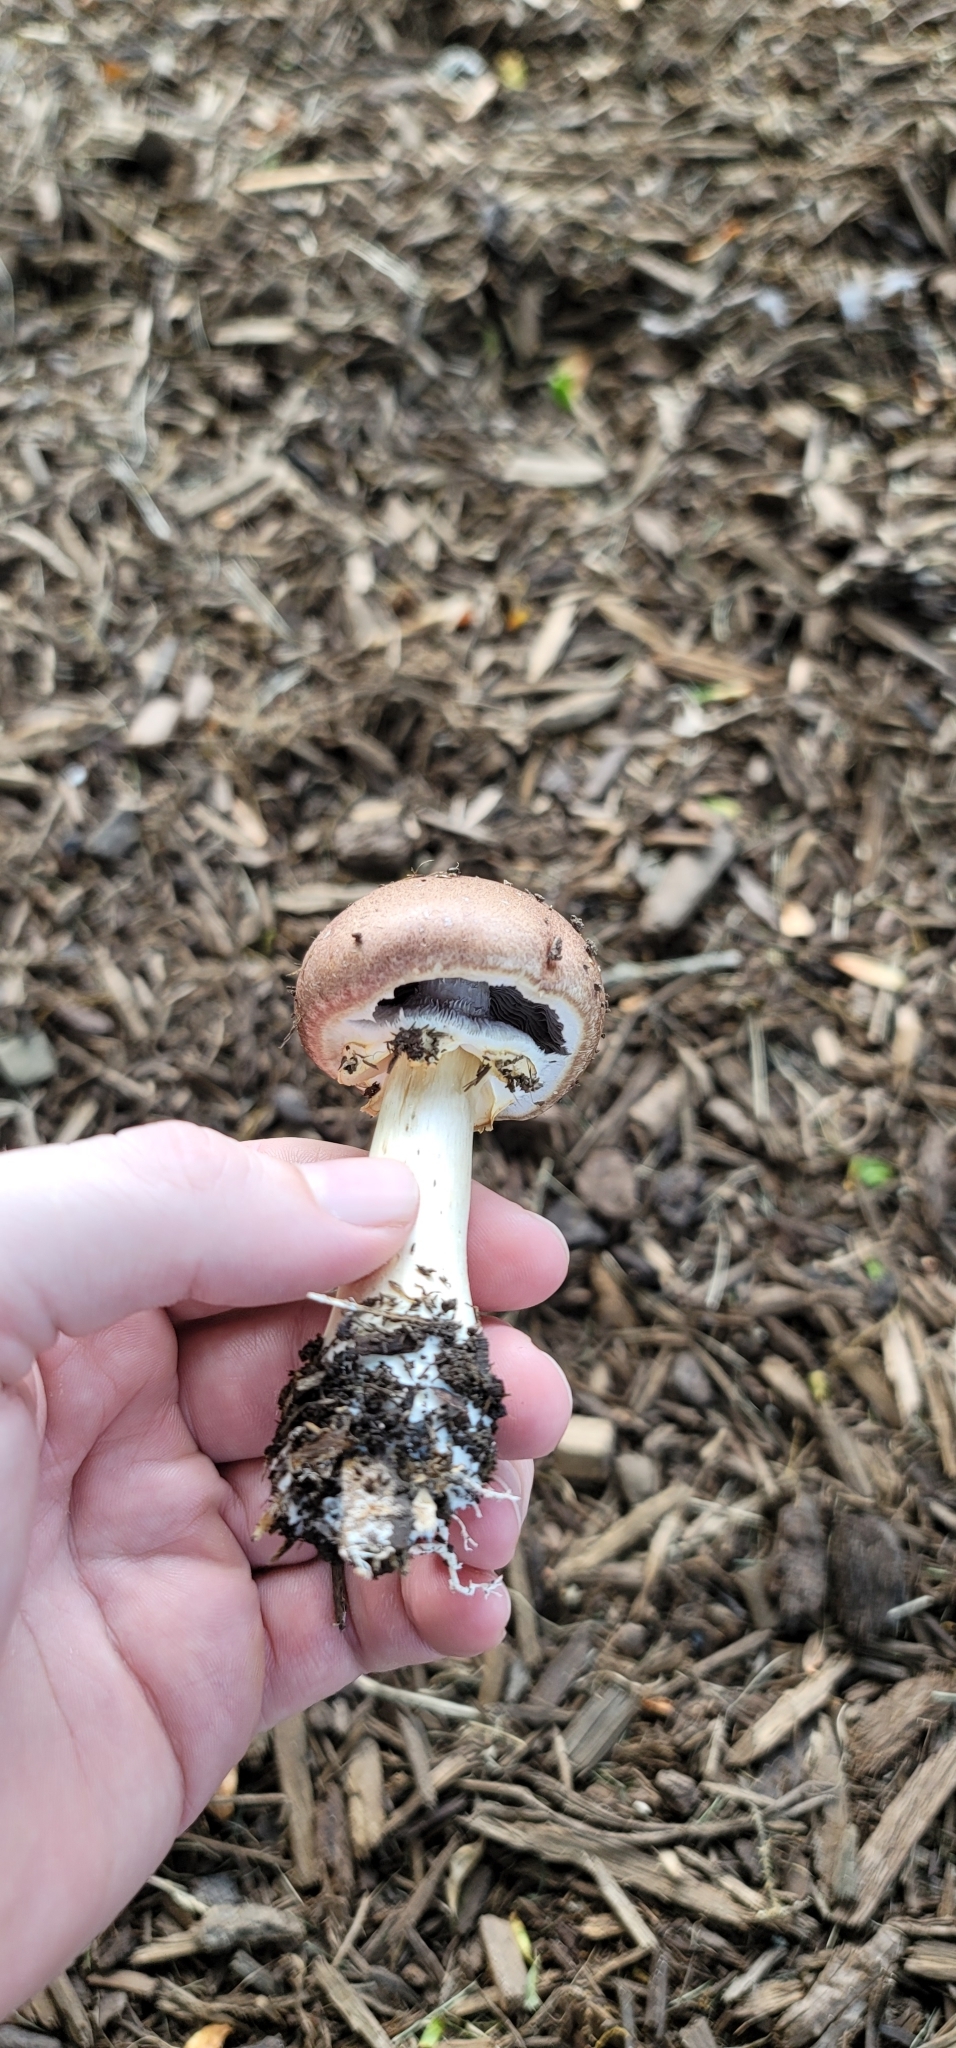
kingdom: Fungi
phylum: Basidiomycota
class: Agaricomycetes
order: Agaricales
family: Strophariaceae
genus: Stropharia
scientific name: Stropharia rugosoannulata
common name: Wine roundhead
